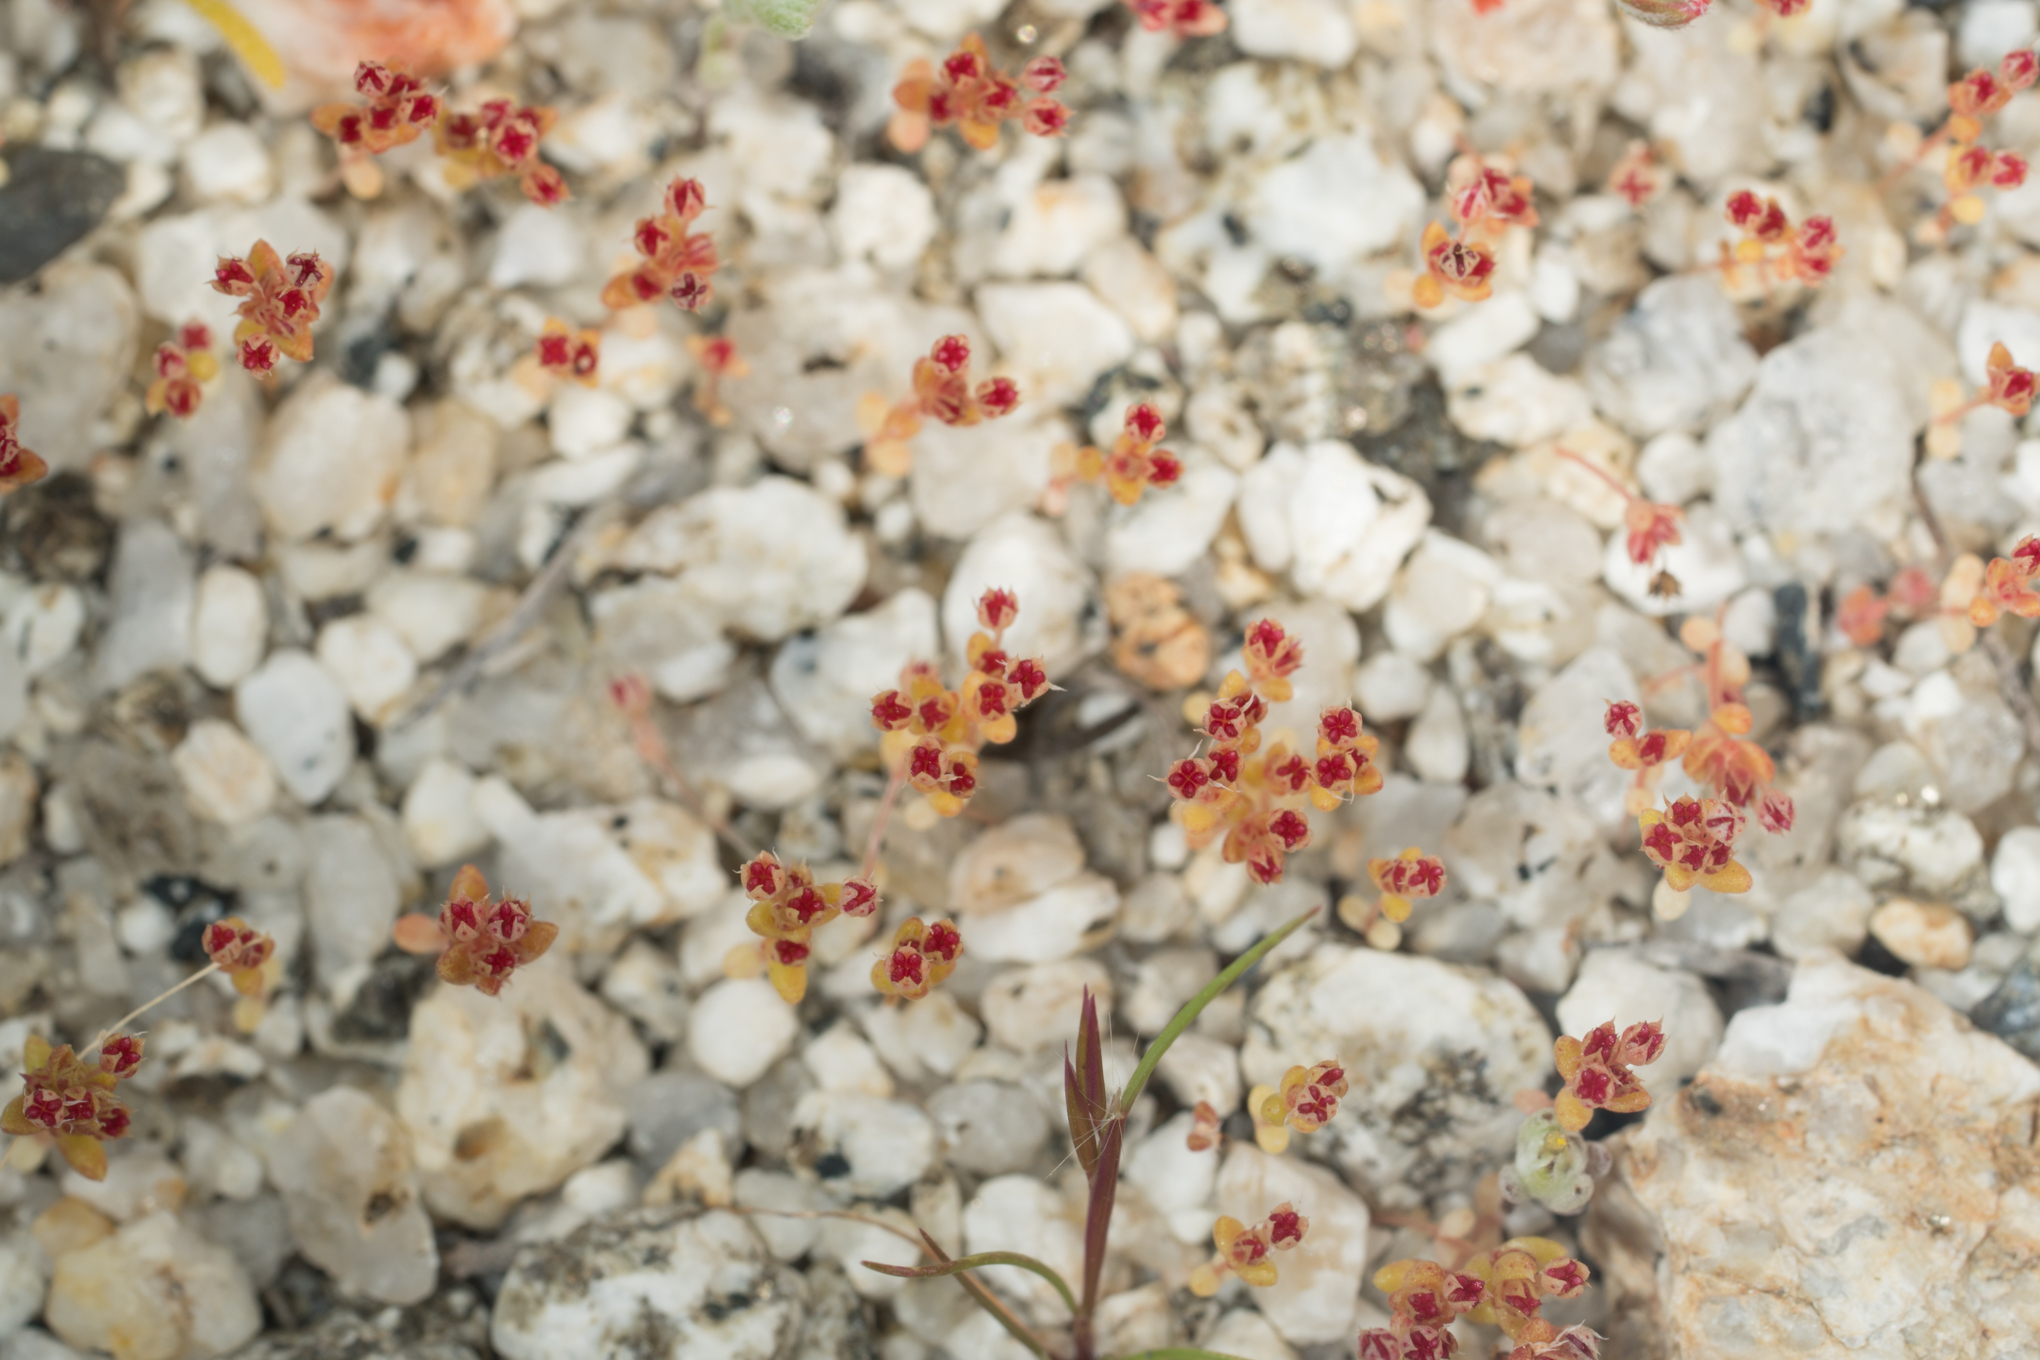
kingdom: Plantae
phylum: Tracheophyta
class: Magnoliopsida
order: Saxifragales
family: Crassulaceae
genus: Crassula
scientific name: Crassula connata
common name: Erect pygmyweed
